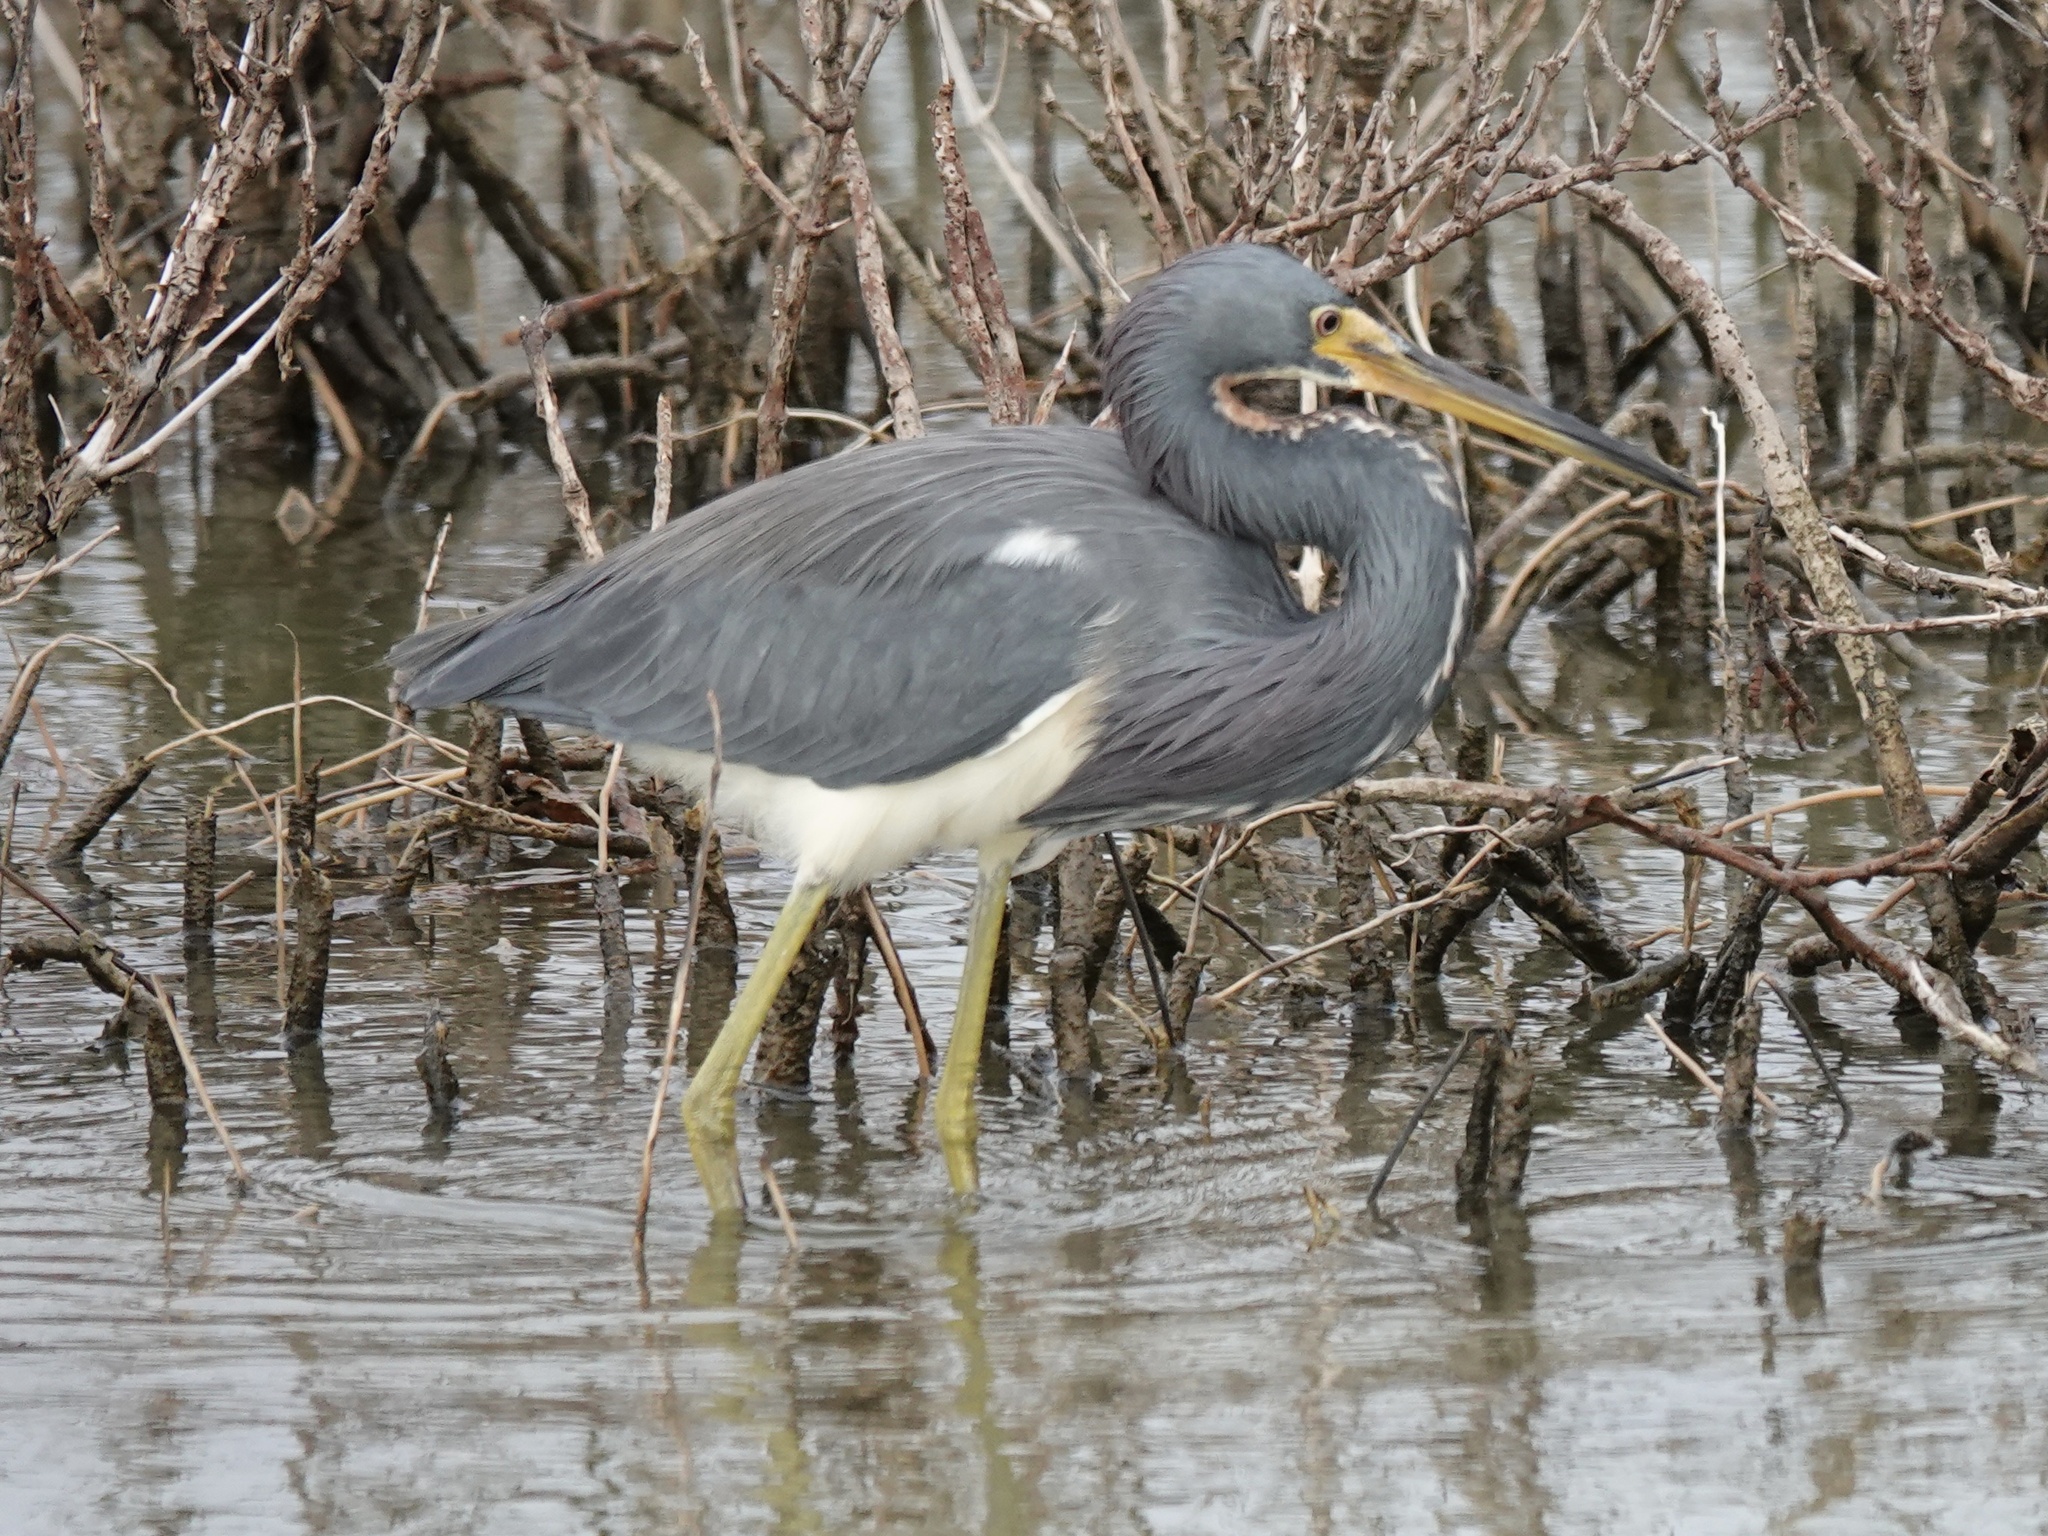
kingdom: Animalia
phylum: Chordata
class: Aves
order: Pelecaniformes
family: Ardeidae
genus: Egretta
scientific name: Egretta tricolor
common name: Tricolored heron
